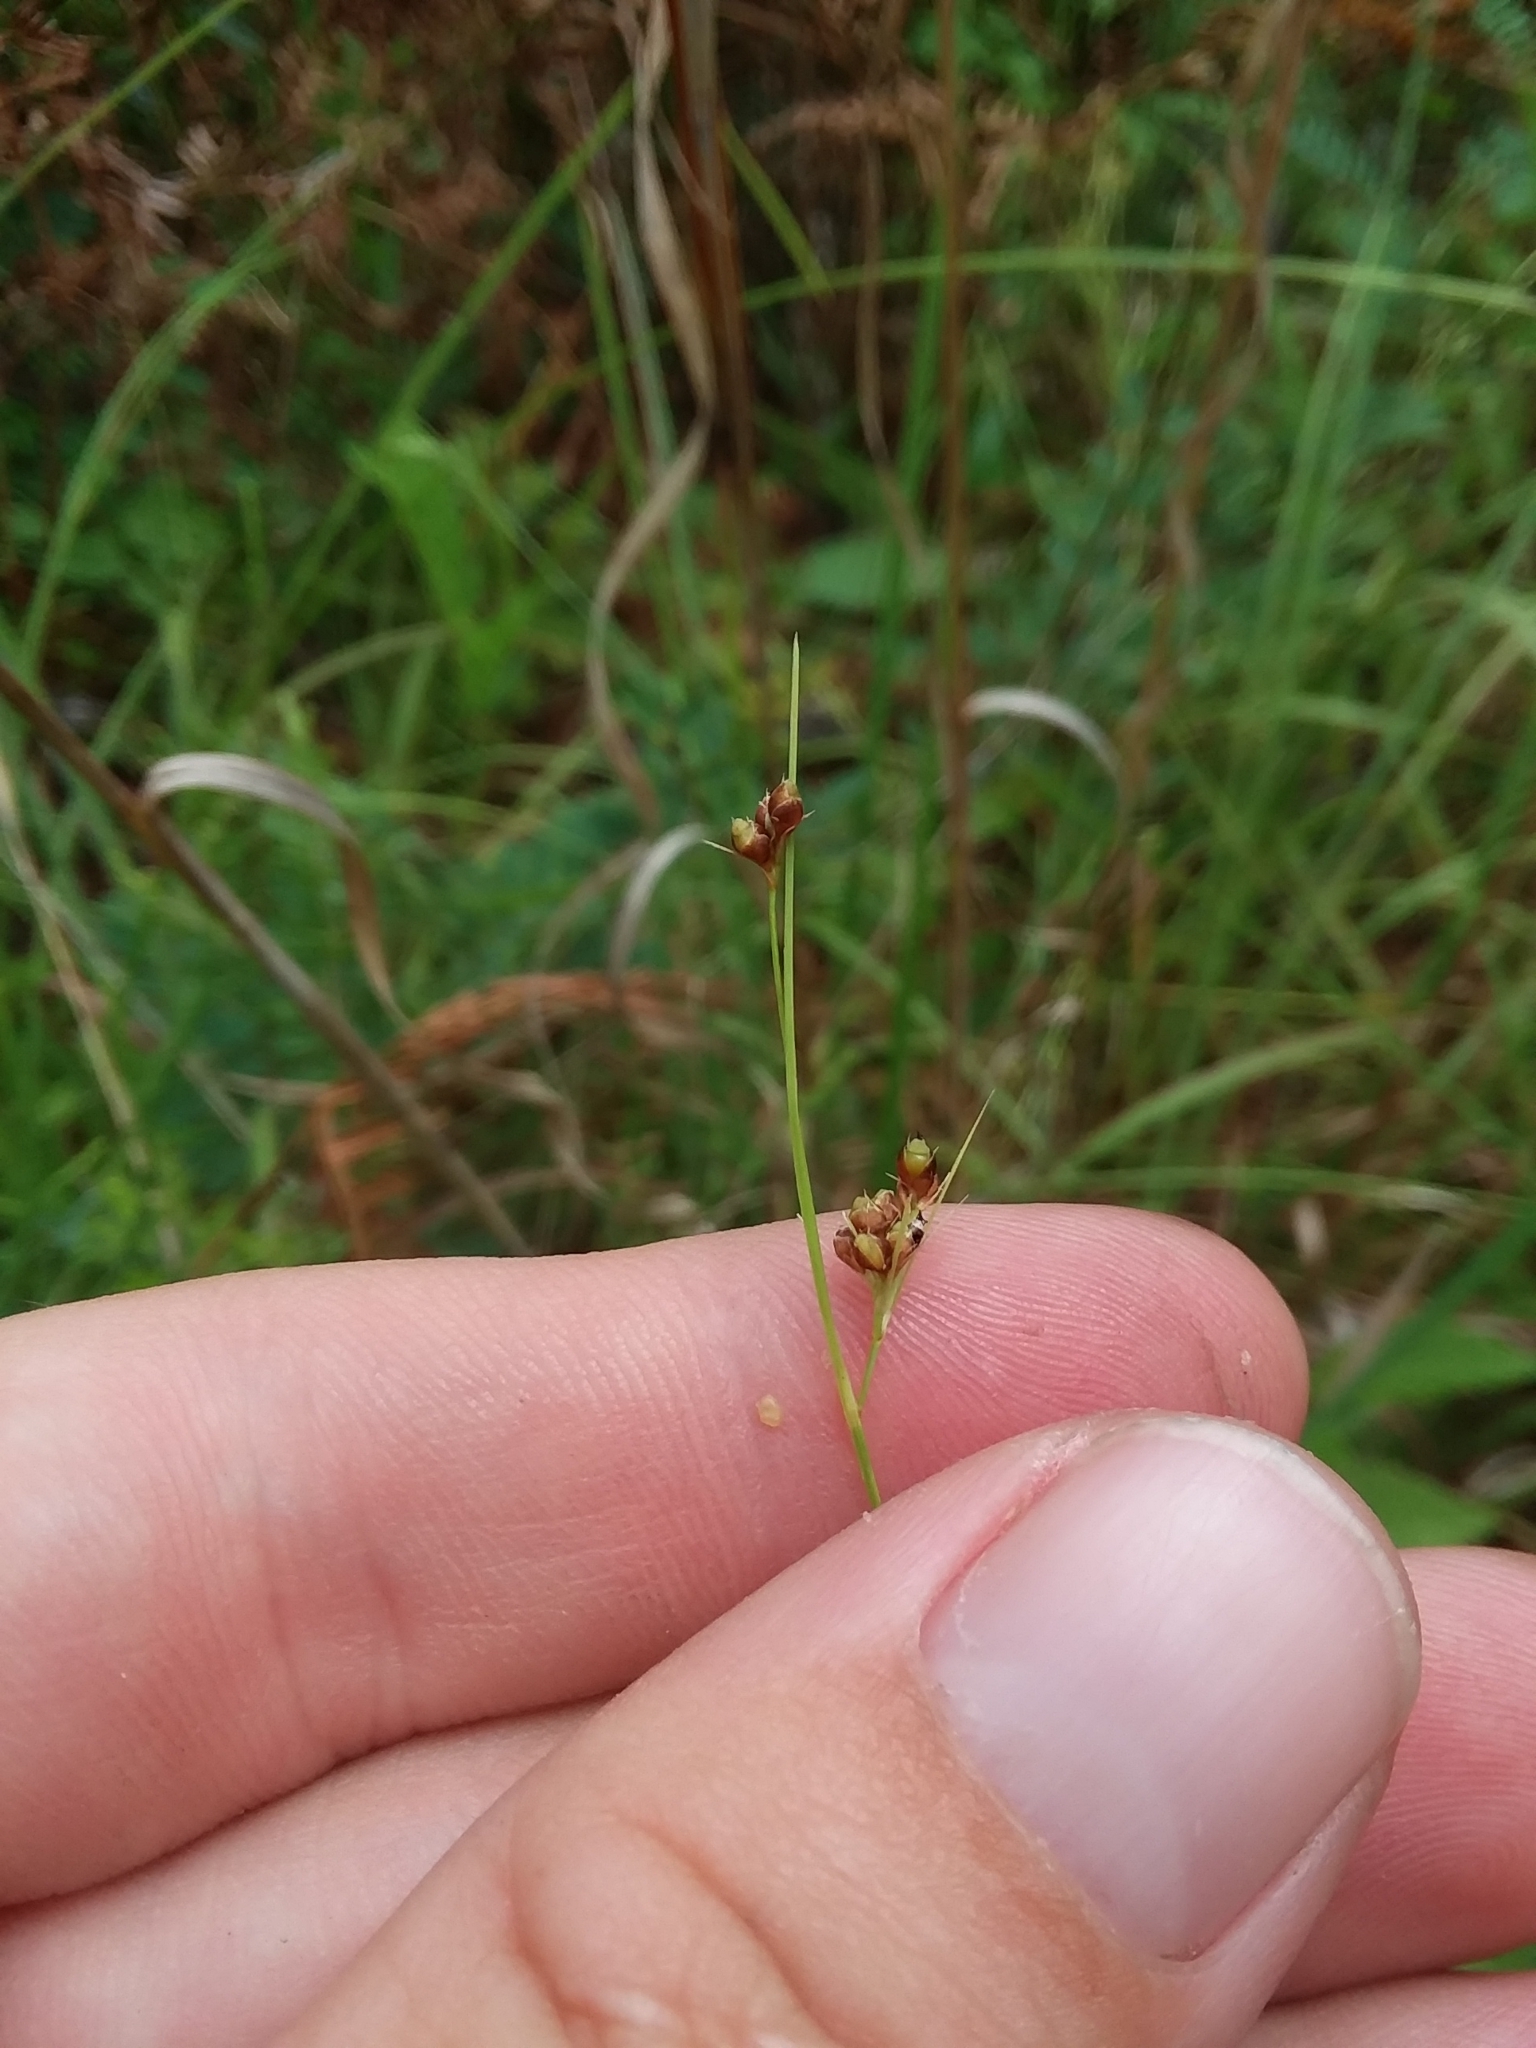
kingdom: Plantae
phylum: Tracheophyta
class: Liliopsida
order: Poales
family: Cyperaceae
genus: Rhynchospora
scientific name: Rhynchospora harveyi
